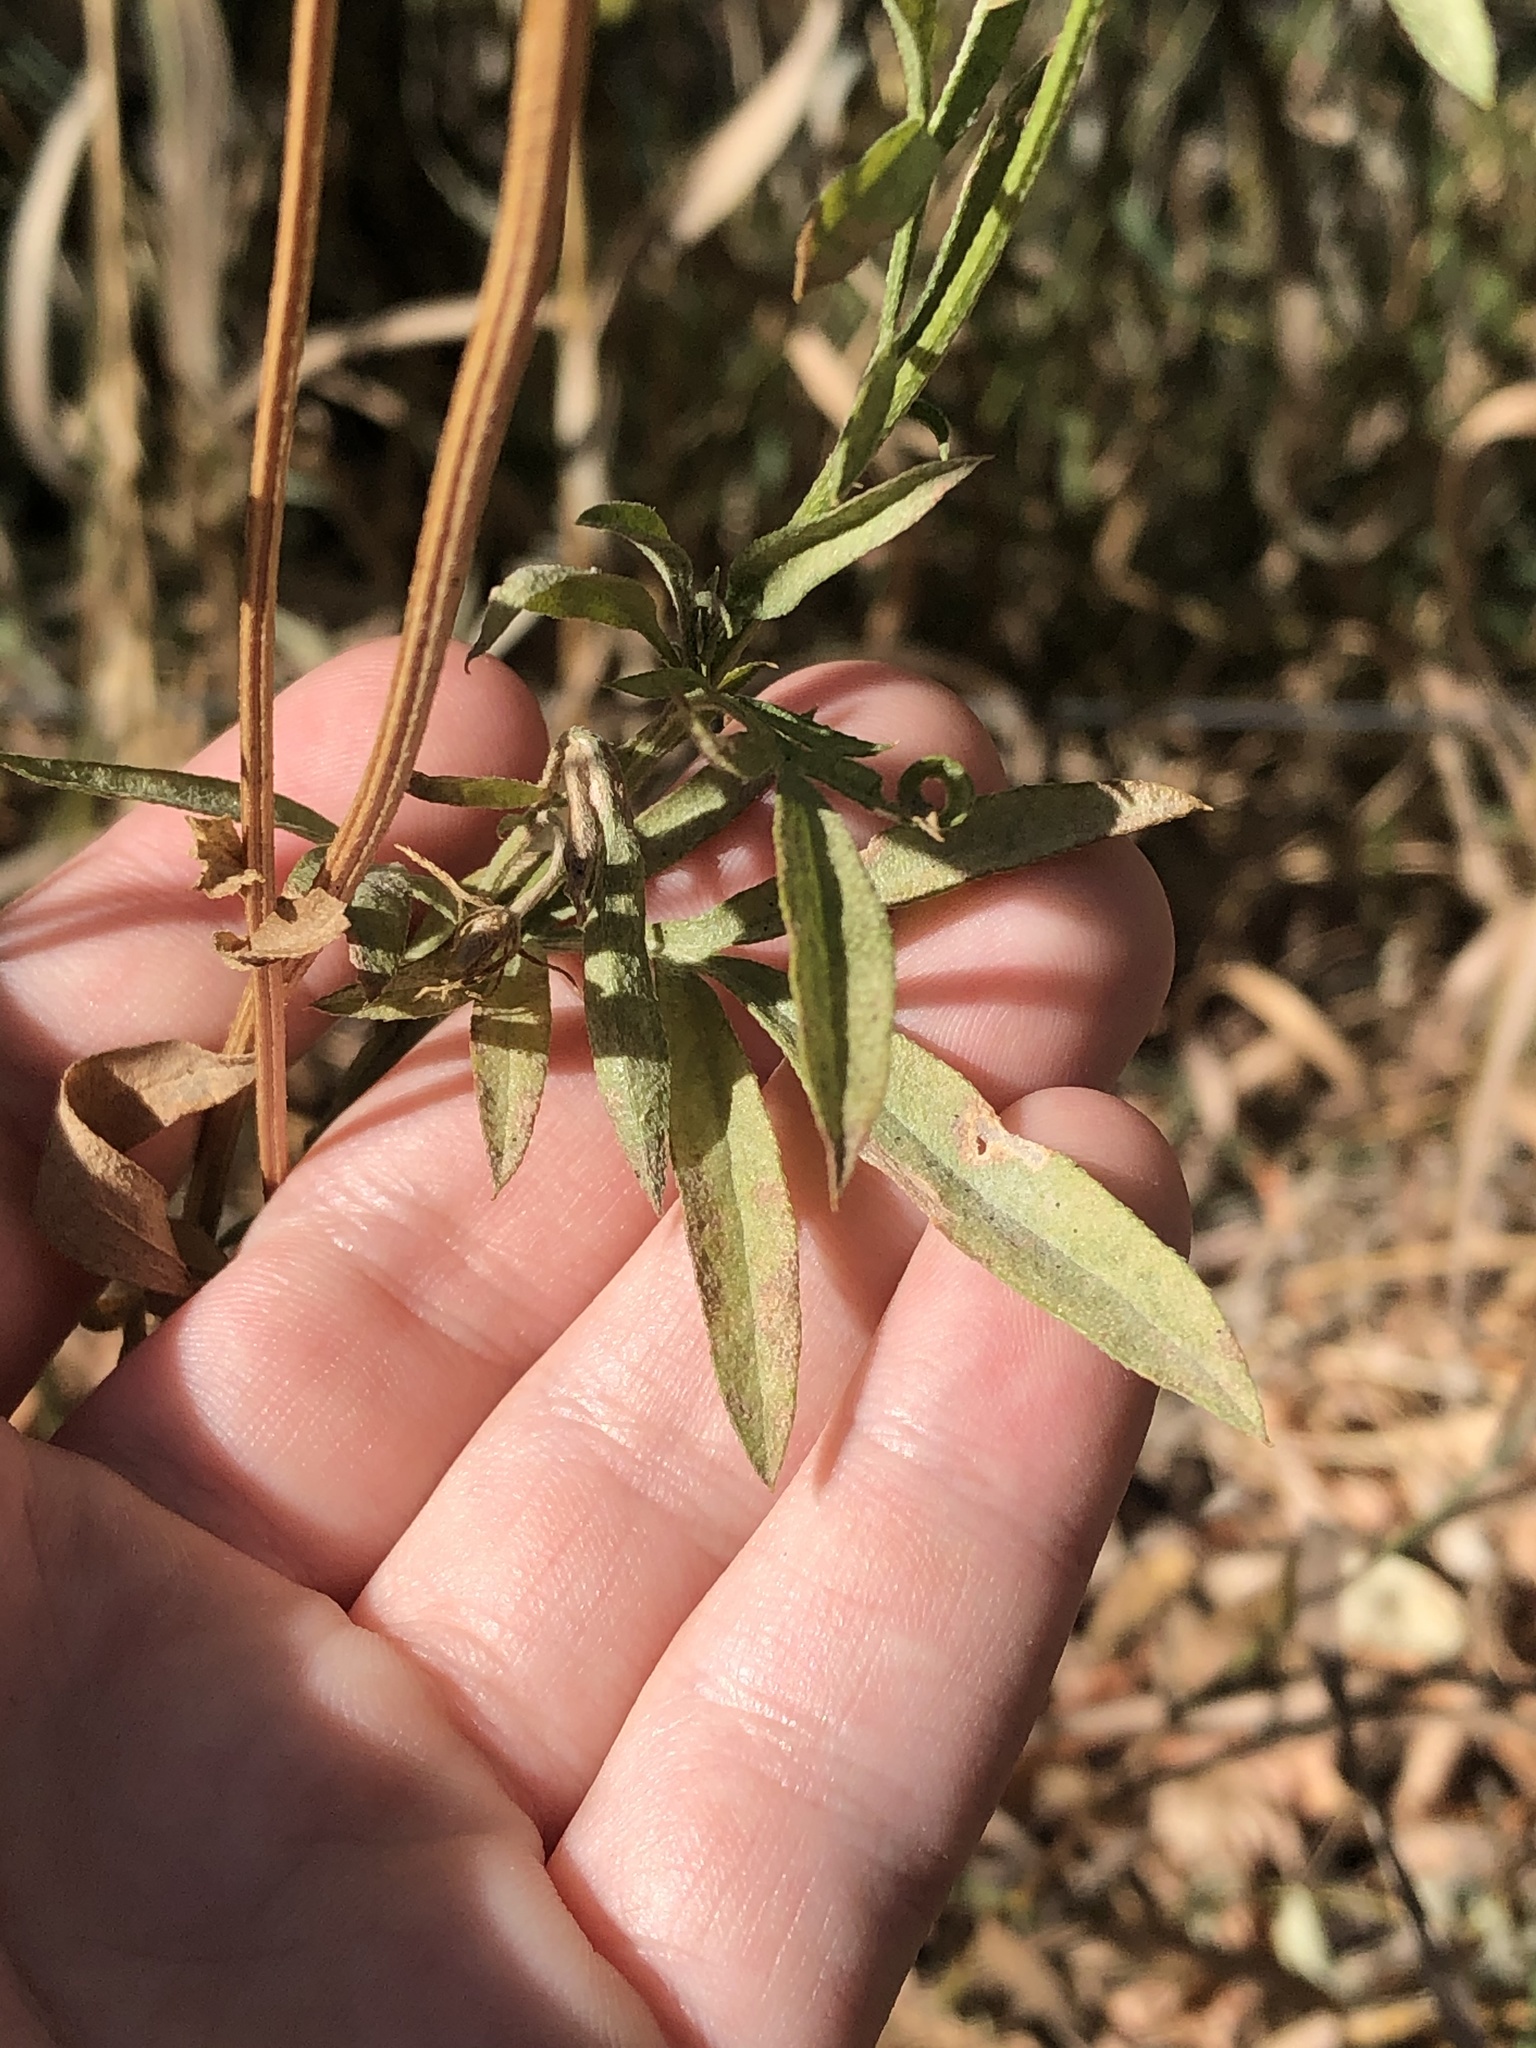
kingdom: Plantae
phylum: Tracheophyta
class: Magnoliopsida
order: Asterales
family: Asteraceae
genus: Ratibida
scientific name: Ratibida columnifera
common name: Prairie coneflower
